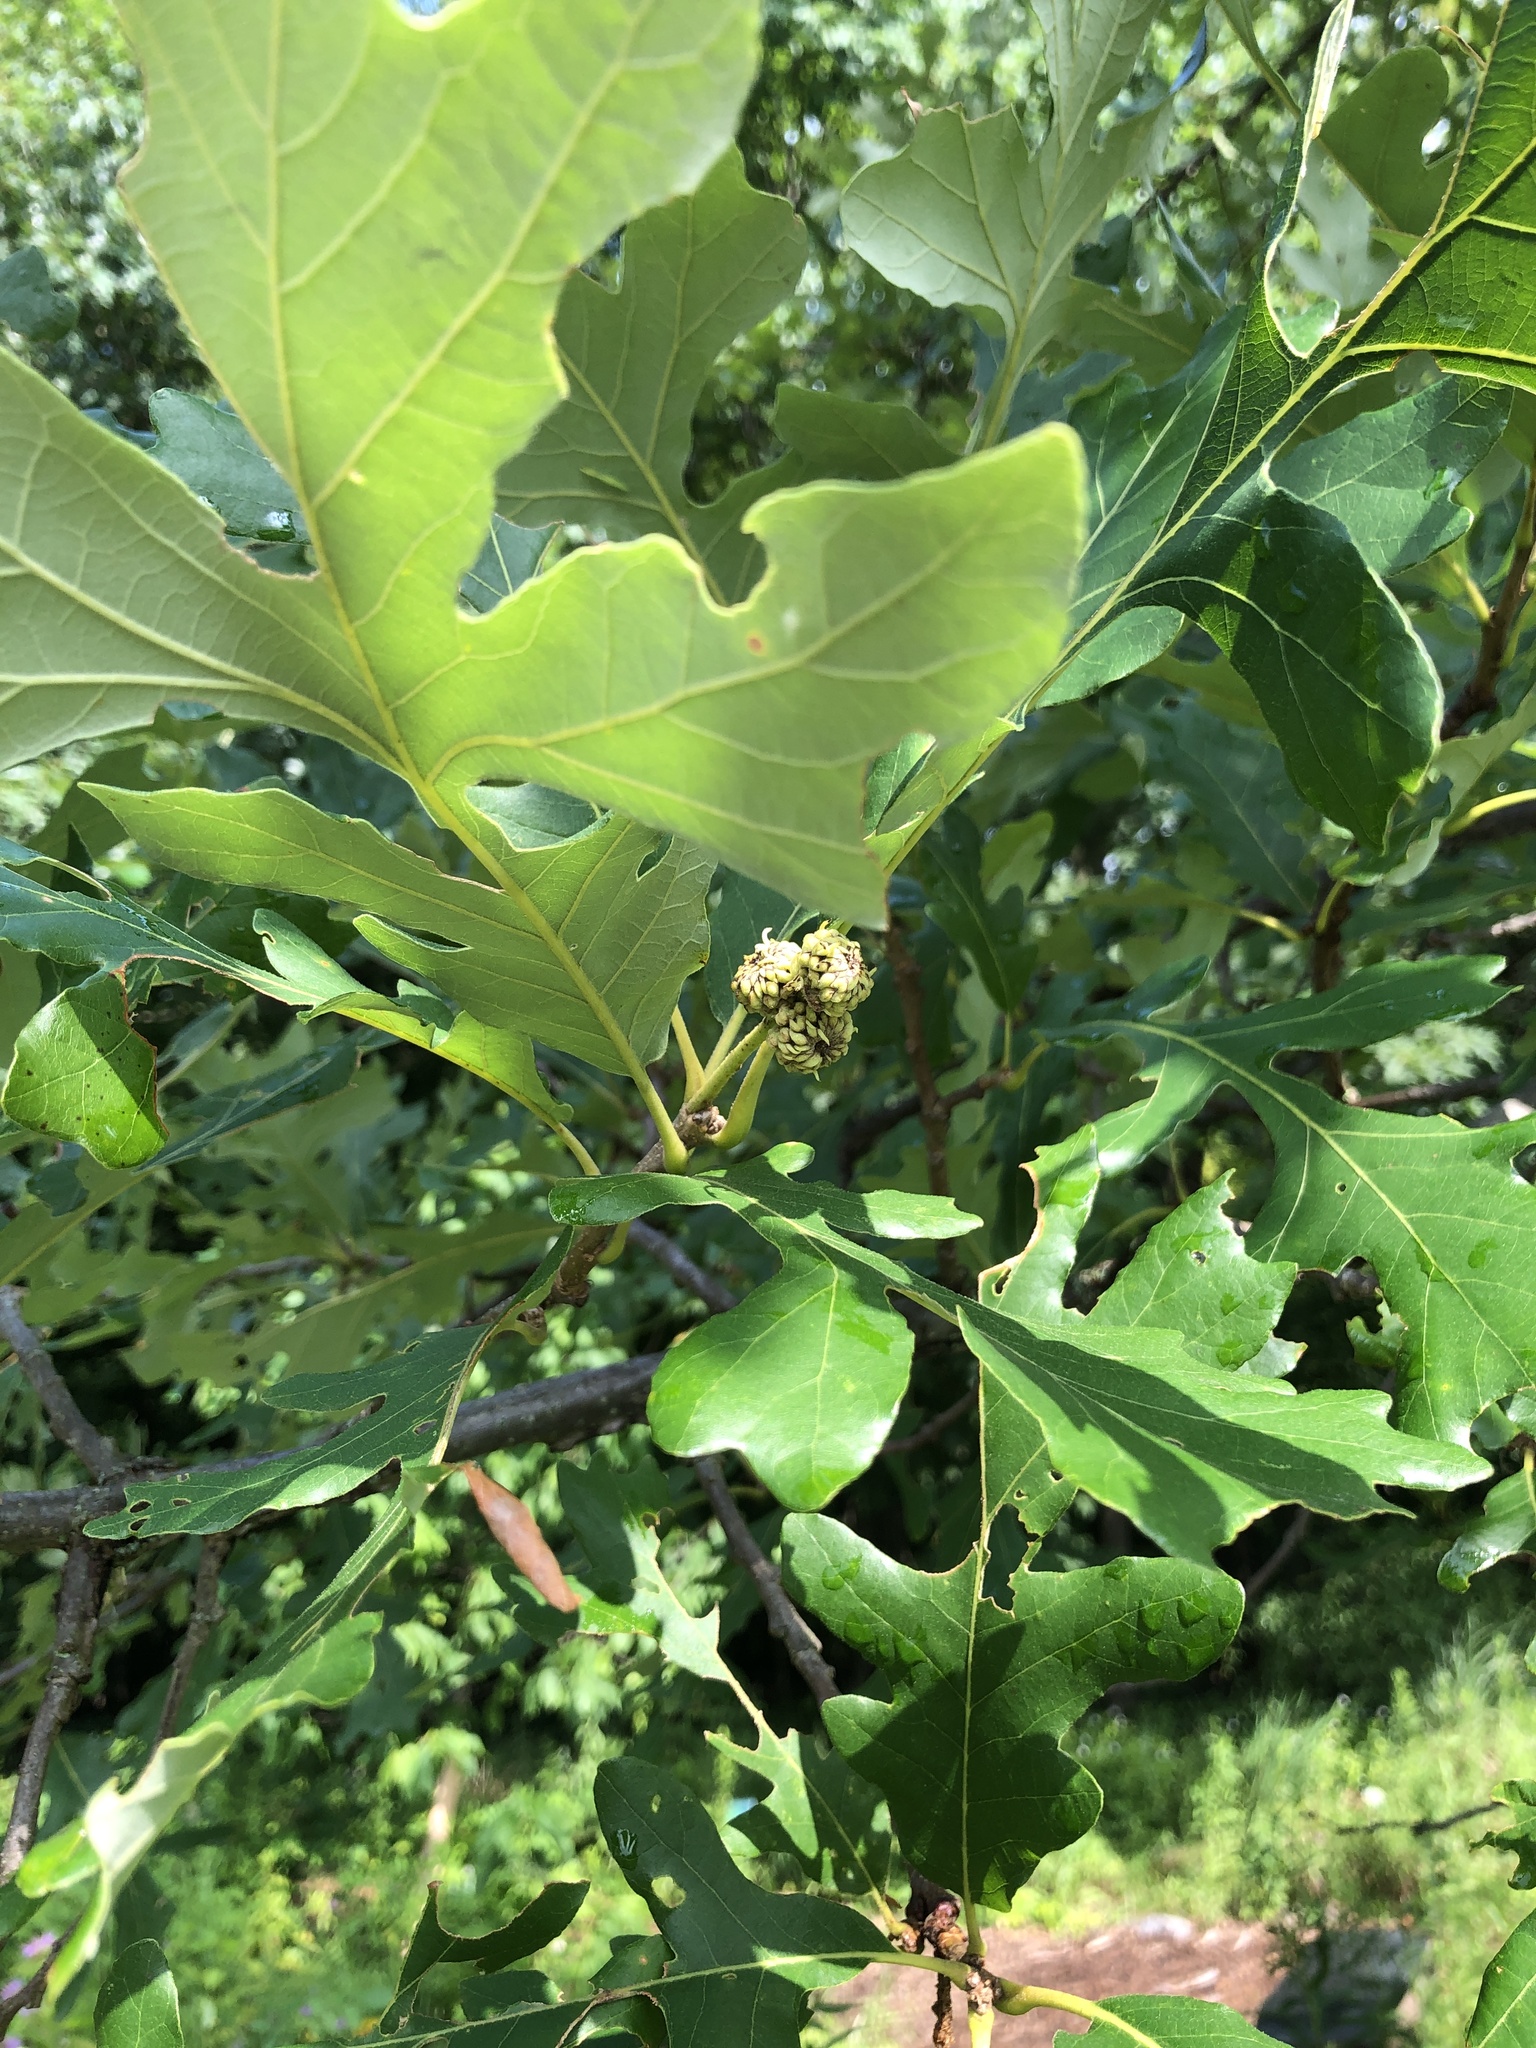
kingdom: Plantae
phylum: Tracheophyta
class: Magnoliopsida
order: Fagales
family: Fagaceae
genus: Quercus
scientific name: Quercus macrocarpa
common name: Bur oak
